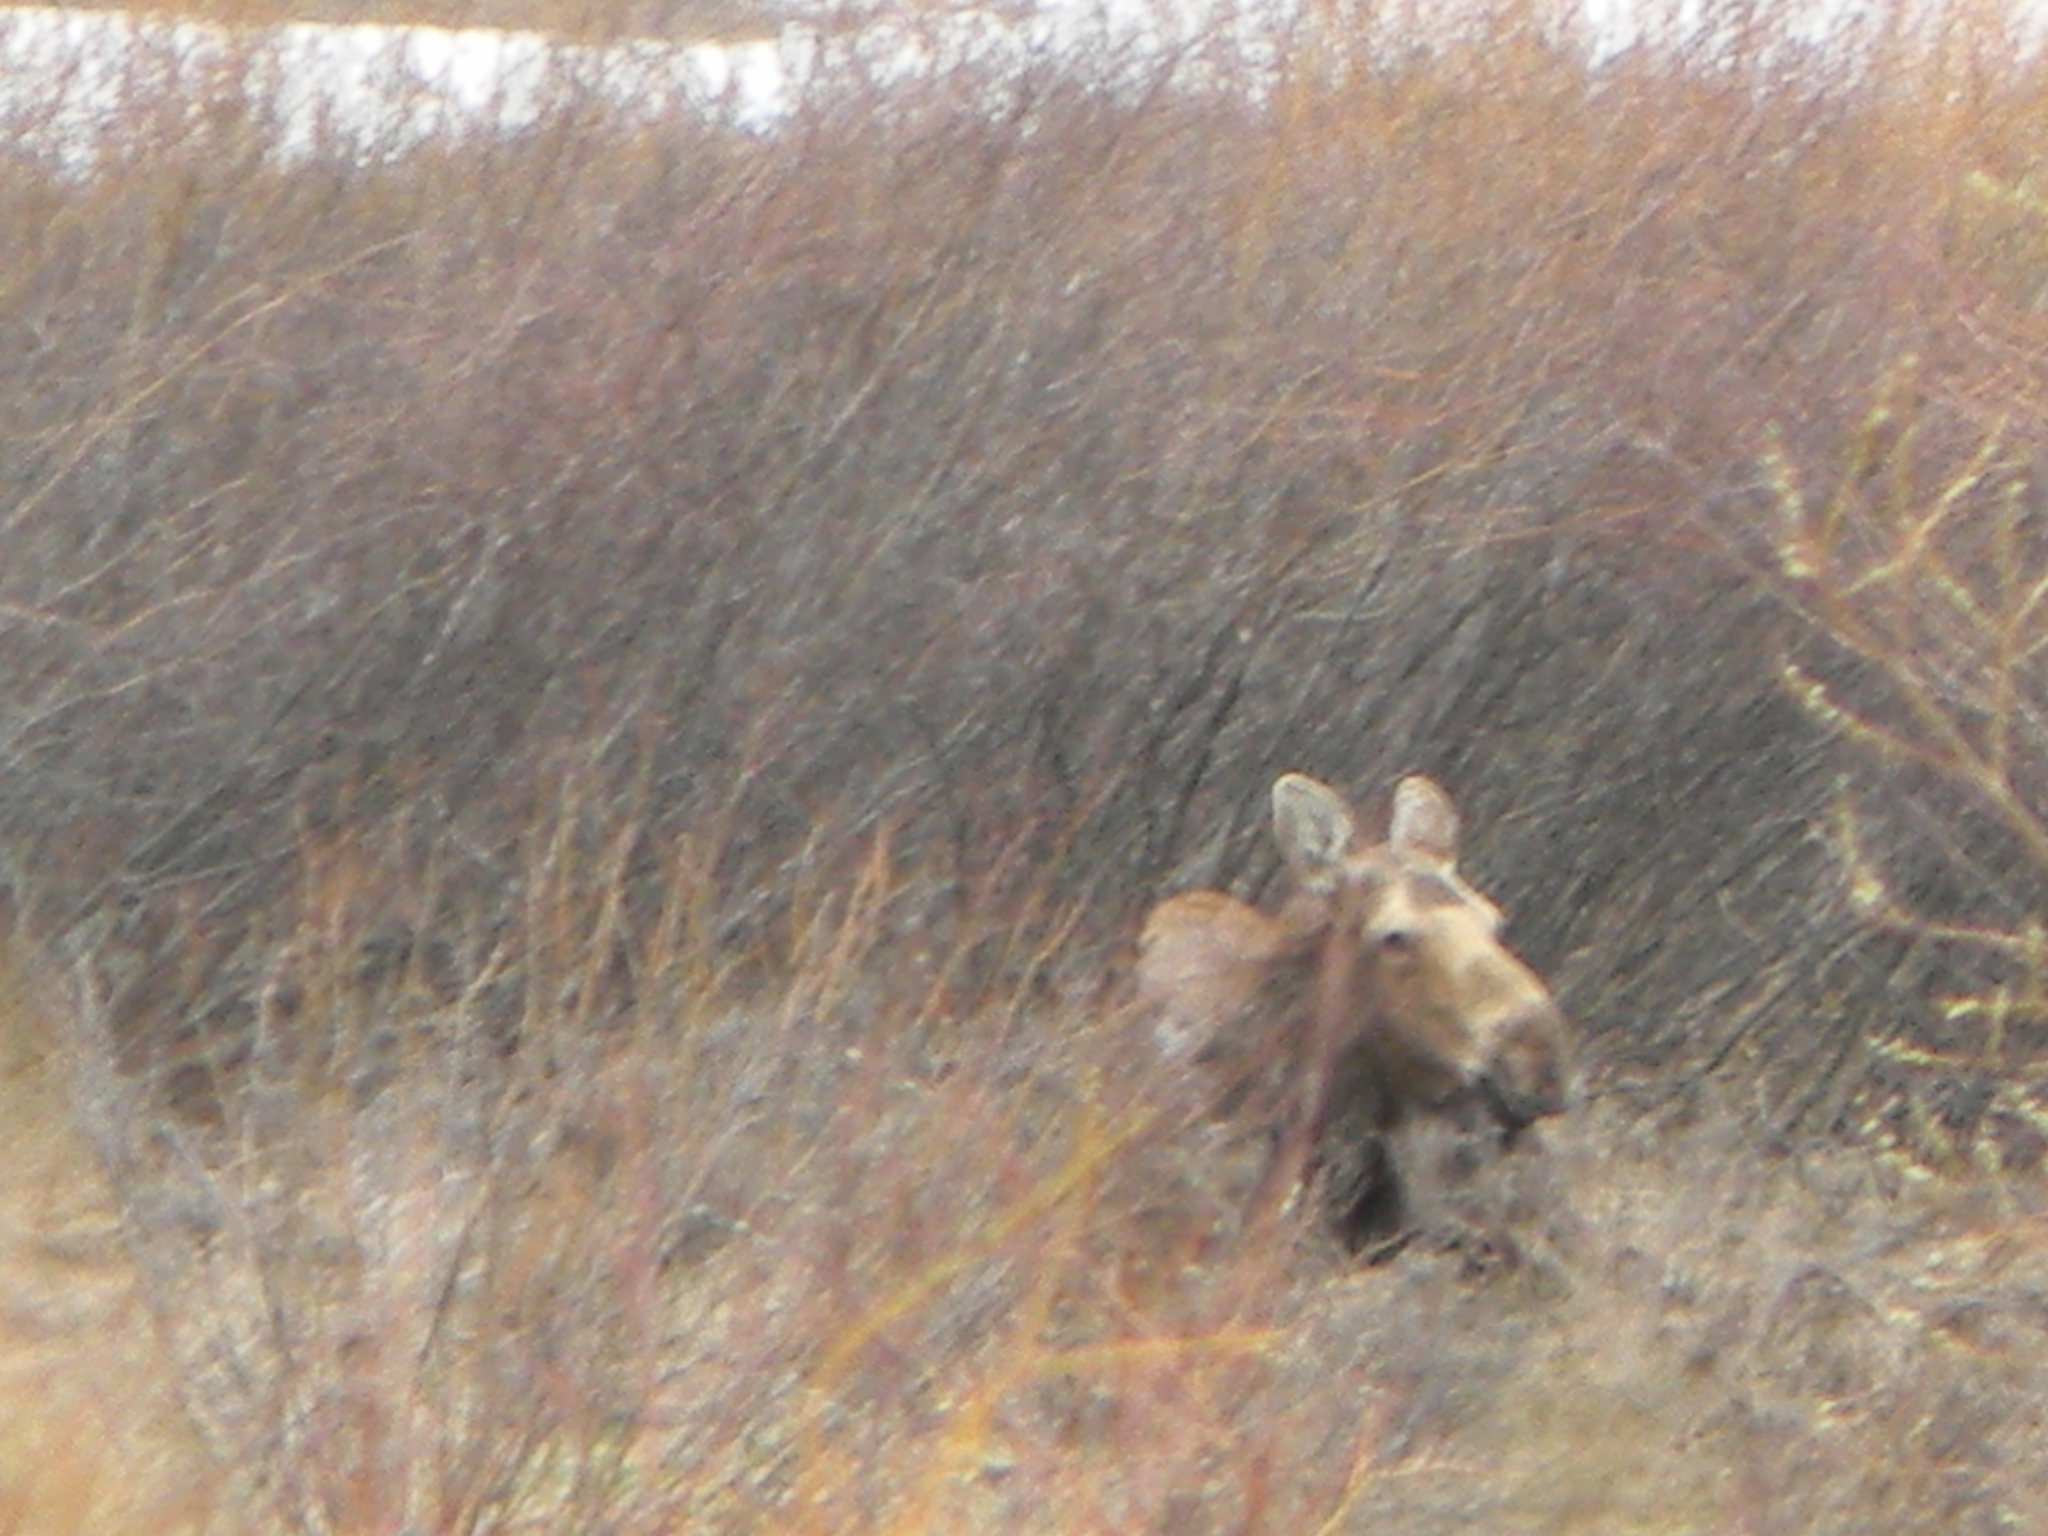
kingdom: Animalia
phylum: Chordata
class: Mammalia
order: Artiodactyla
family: Cervidae
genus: Alces
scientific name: Alces alces
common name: Moose
